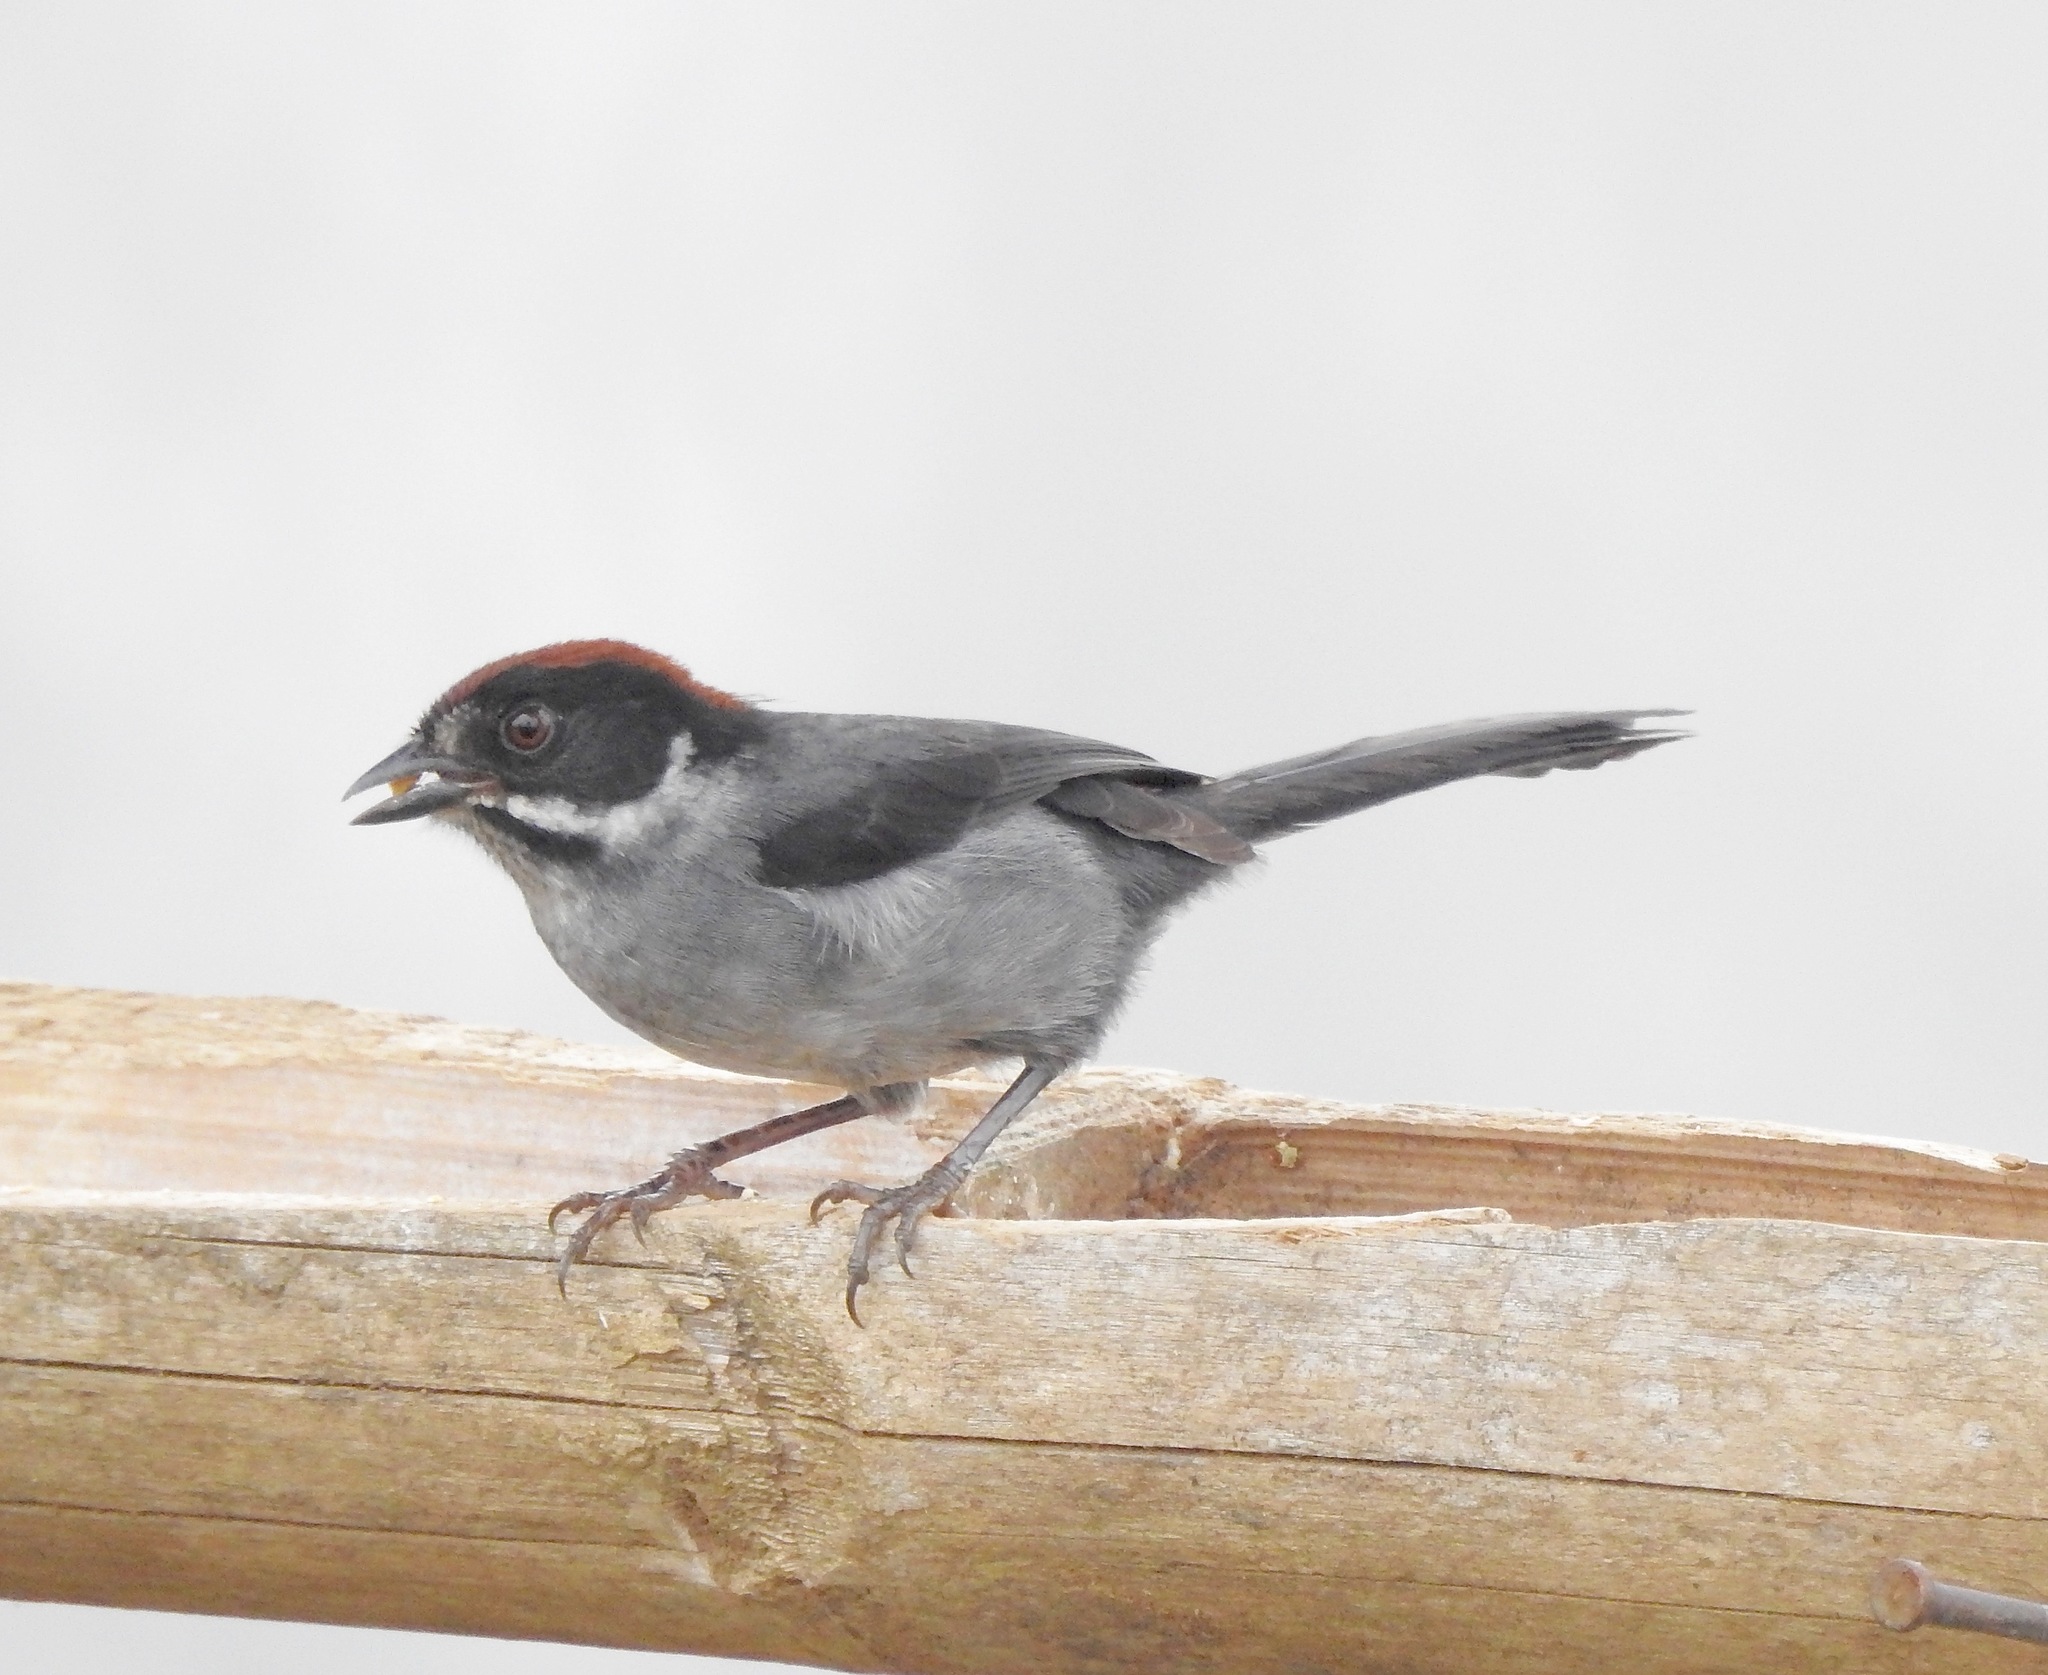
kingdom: Animalia
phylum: Chordata
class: Aves
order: Passeriformes
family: Passerellidae
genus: Atlapetes
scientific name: Atlapetes schistaceus
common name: Slaty brushfinch
